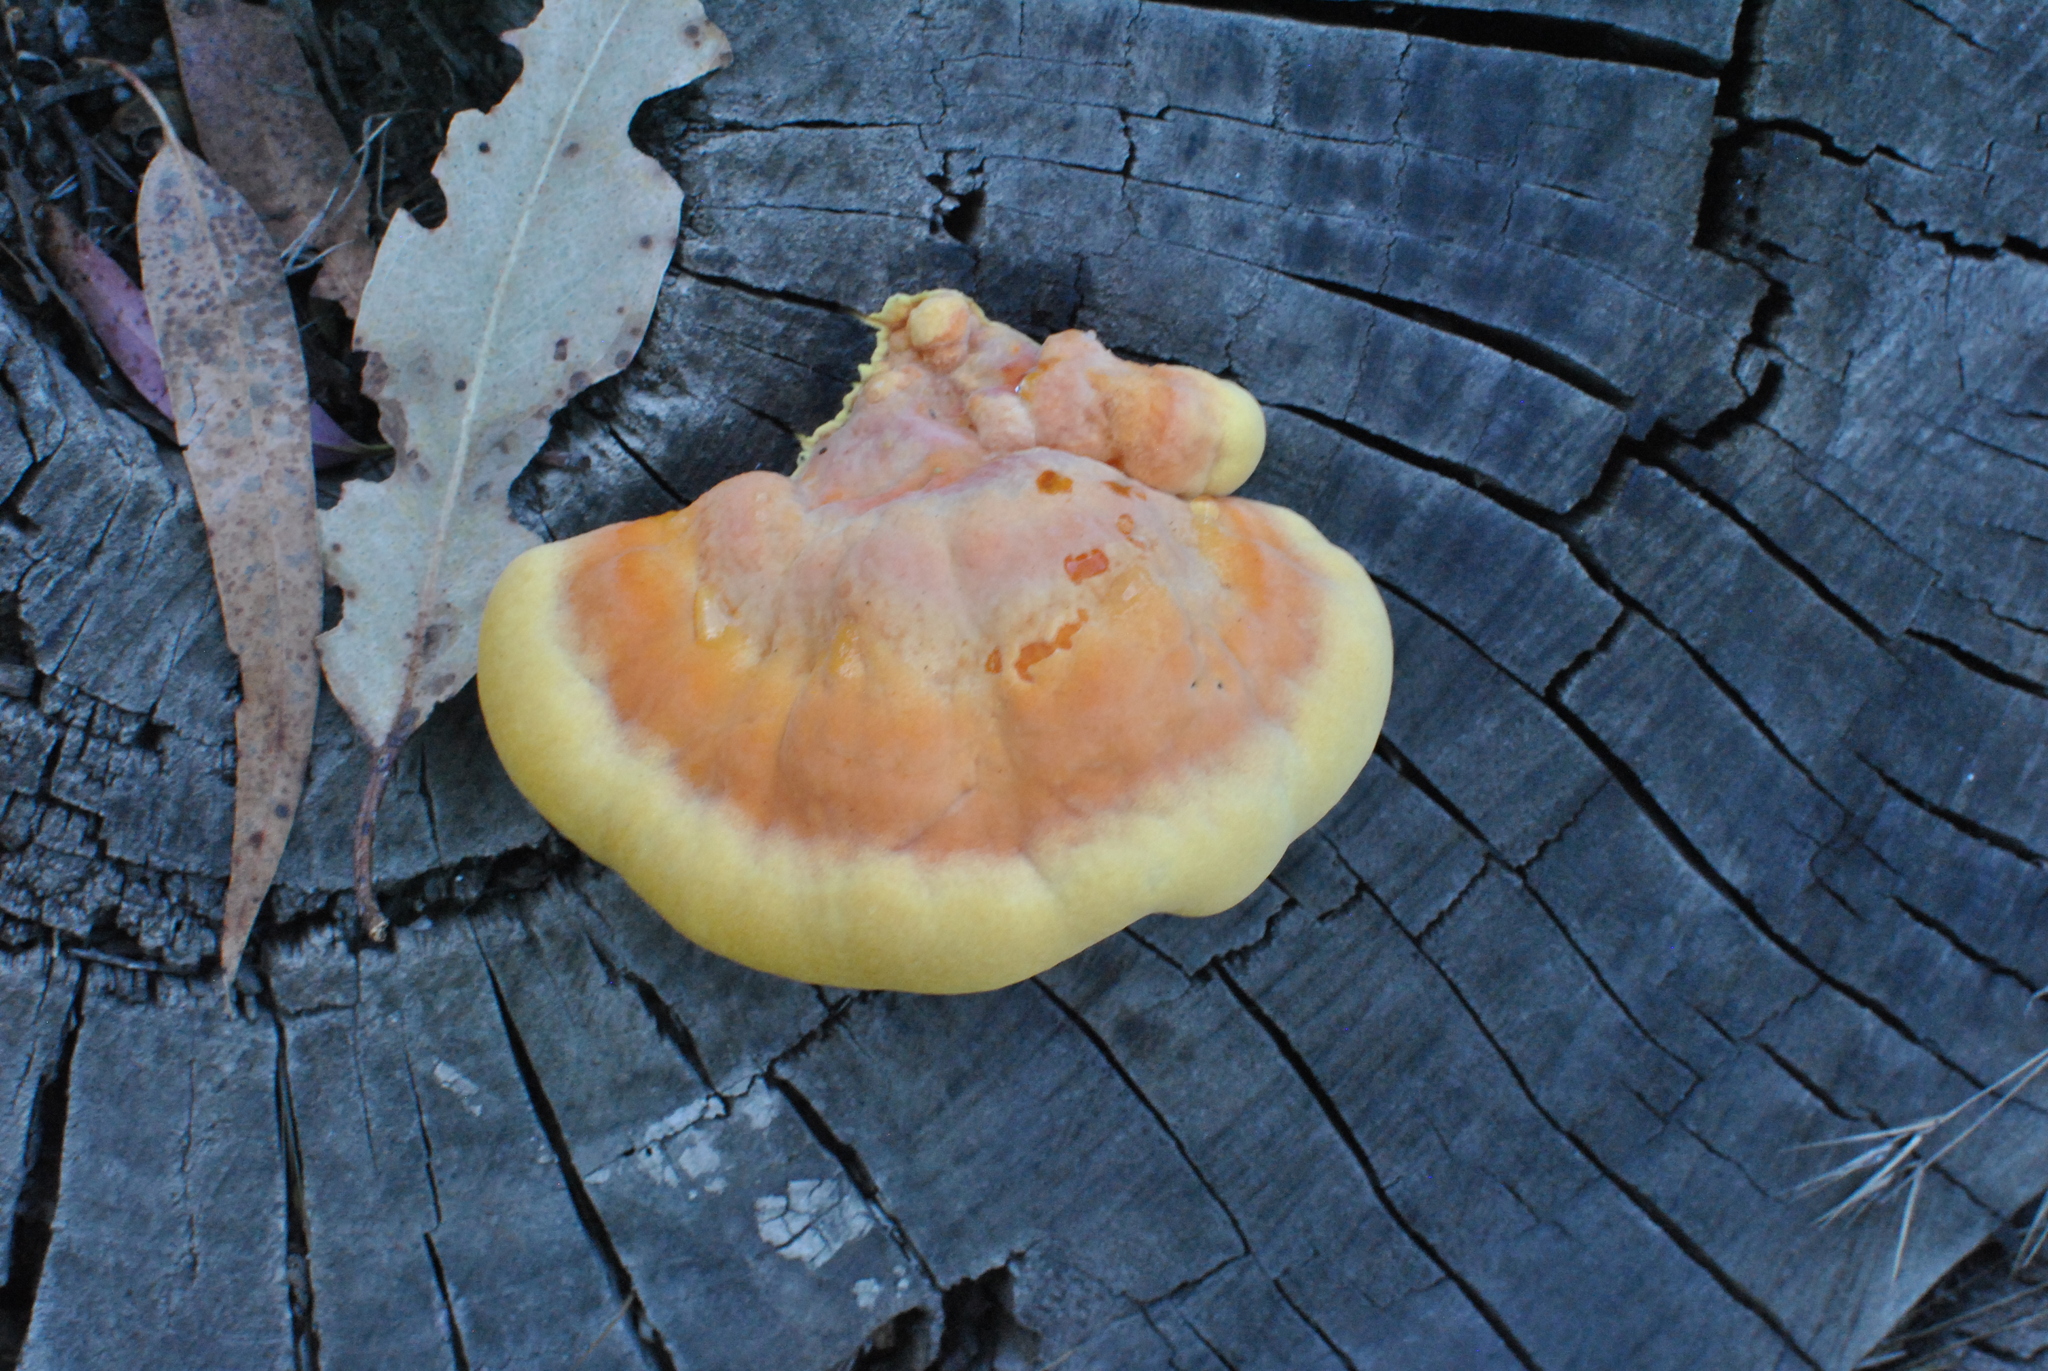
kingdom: Fungi
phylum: Basidiomycota
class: Agaricomycetes
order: Polyporales
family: Laetiporaceae
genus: Laetiporus
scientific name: Laetiporus gilbertsonii
